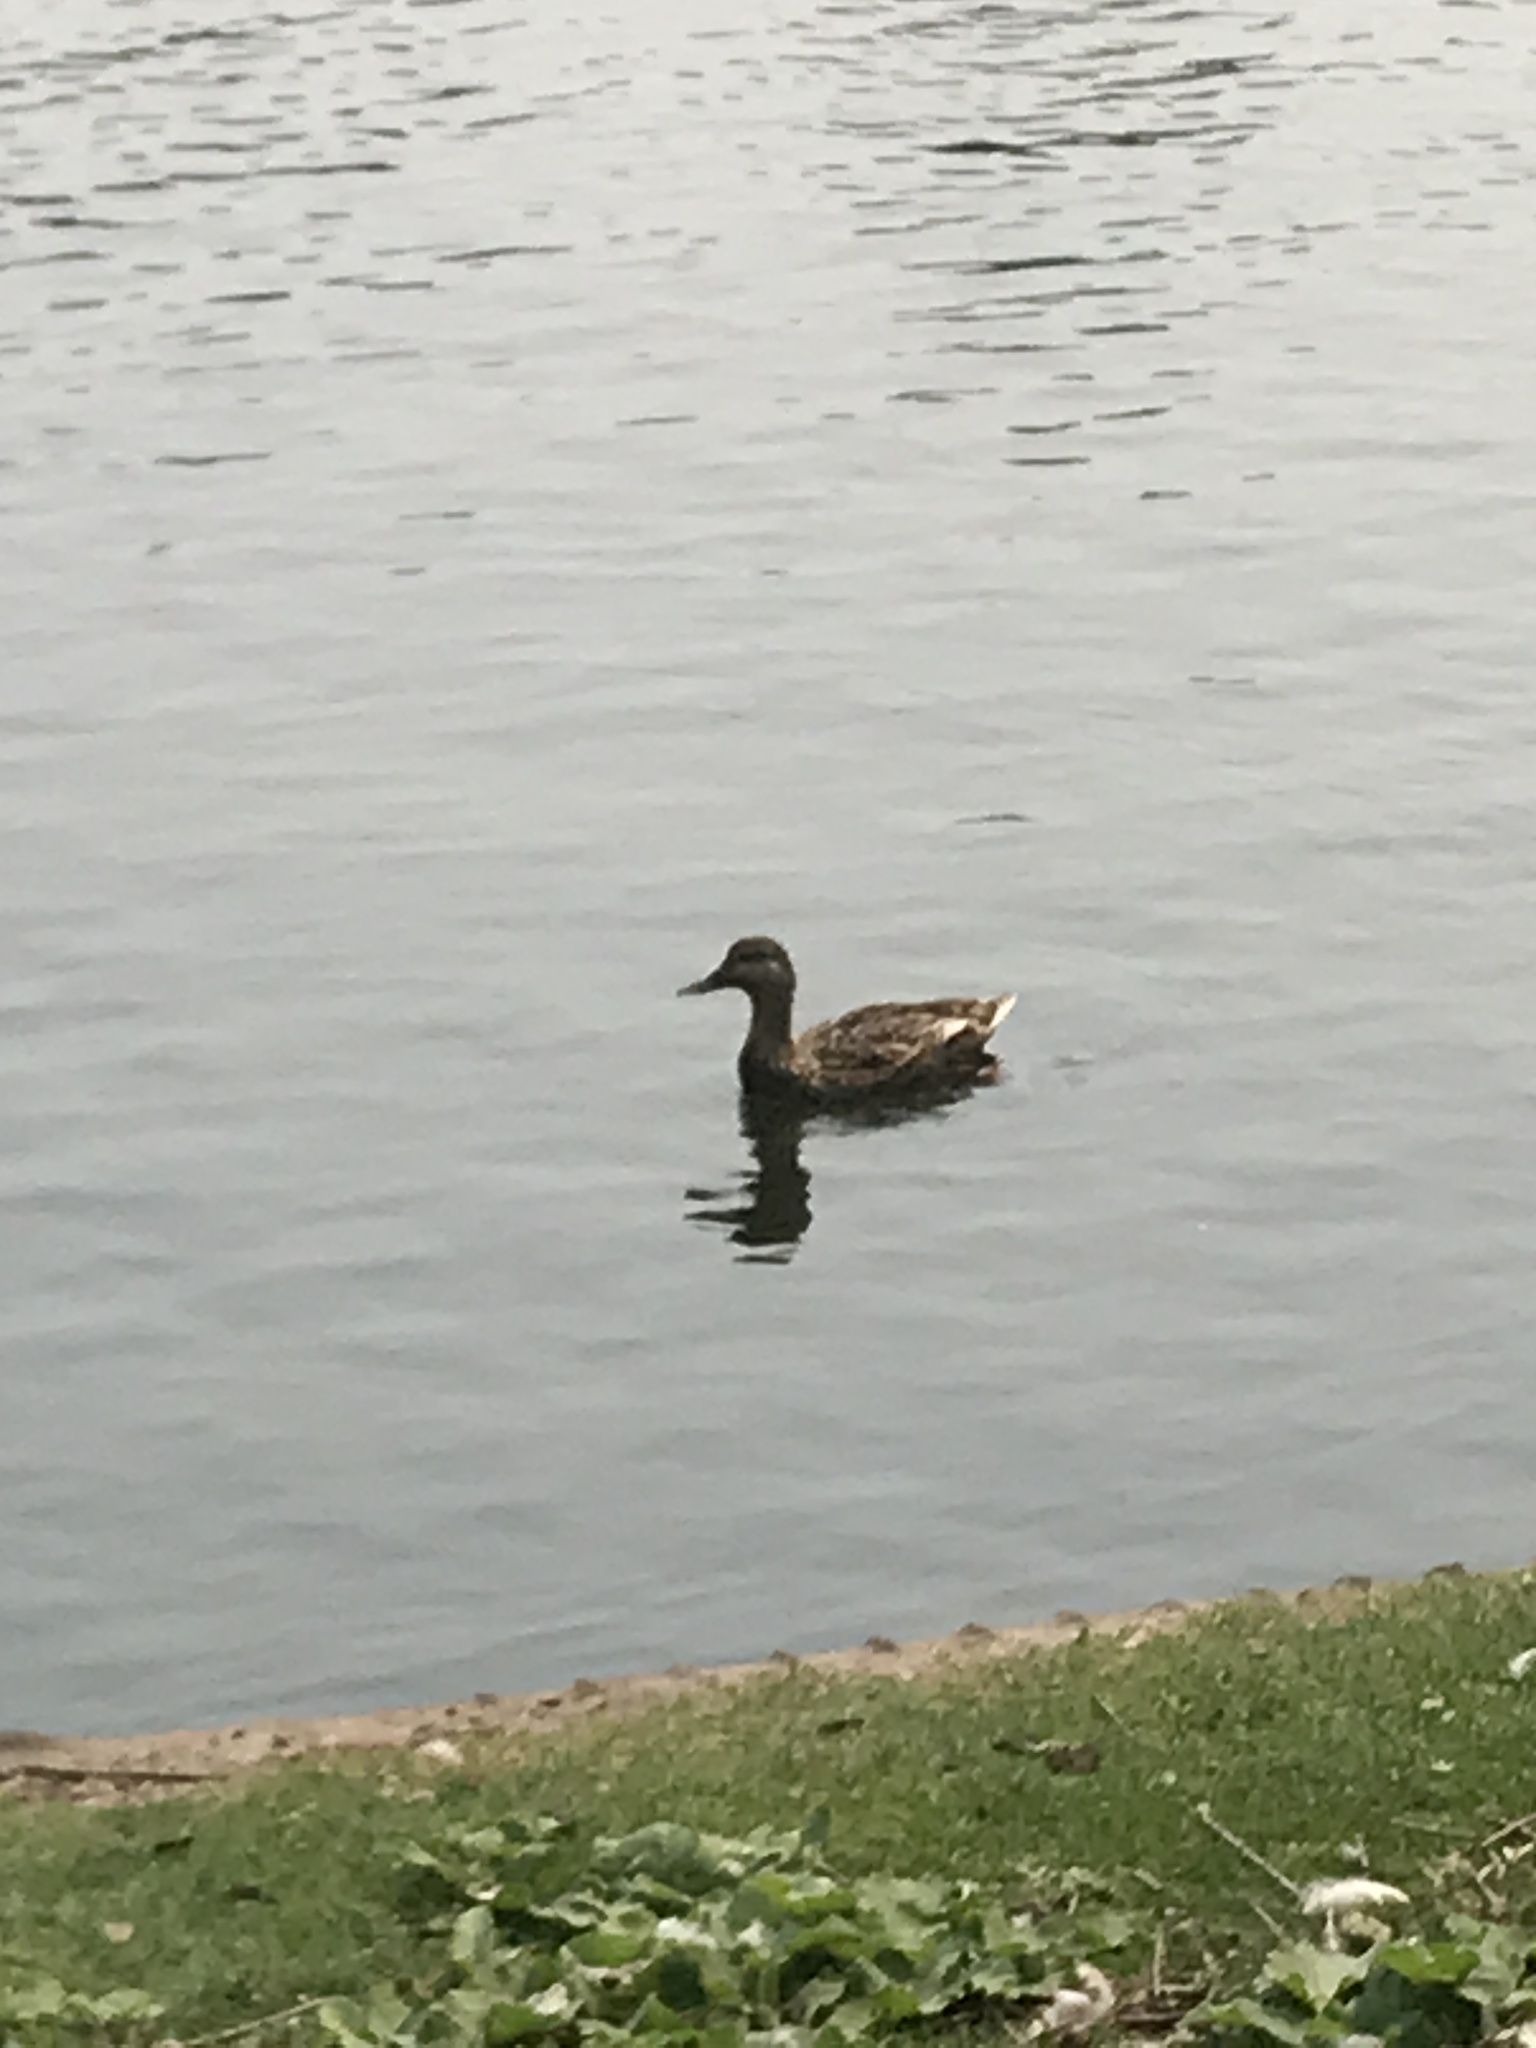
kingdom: Animalia
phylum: Chordata
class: Aves
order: Anseriformes
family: Anatidae
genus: Anas
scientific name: Anas platyrhynchos
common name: Mallard
